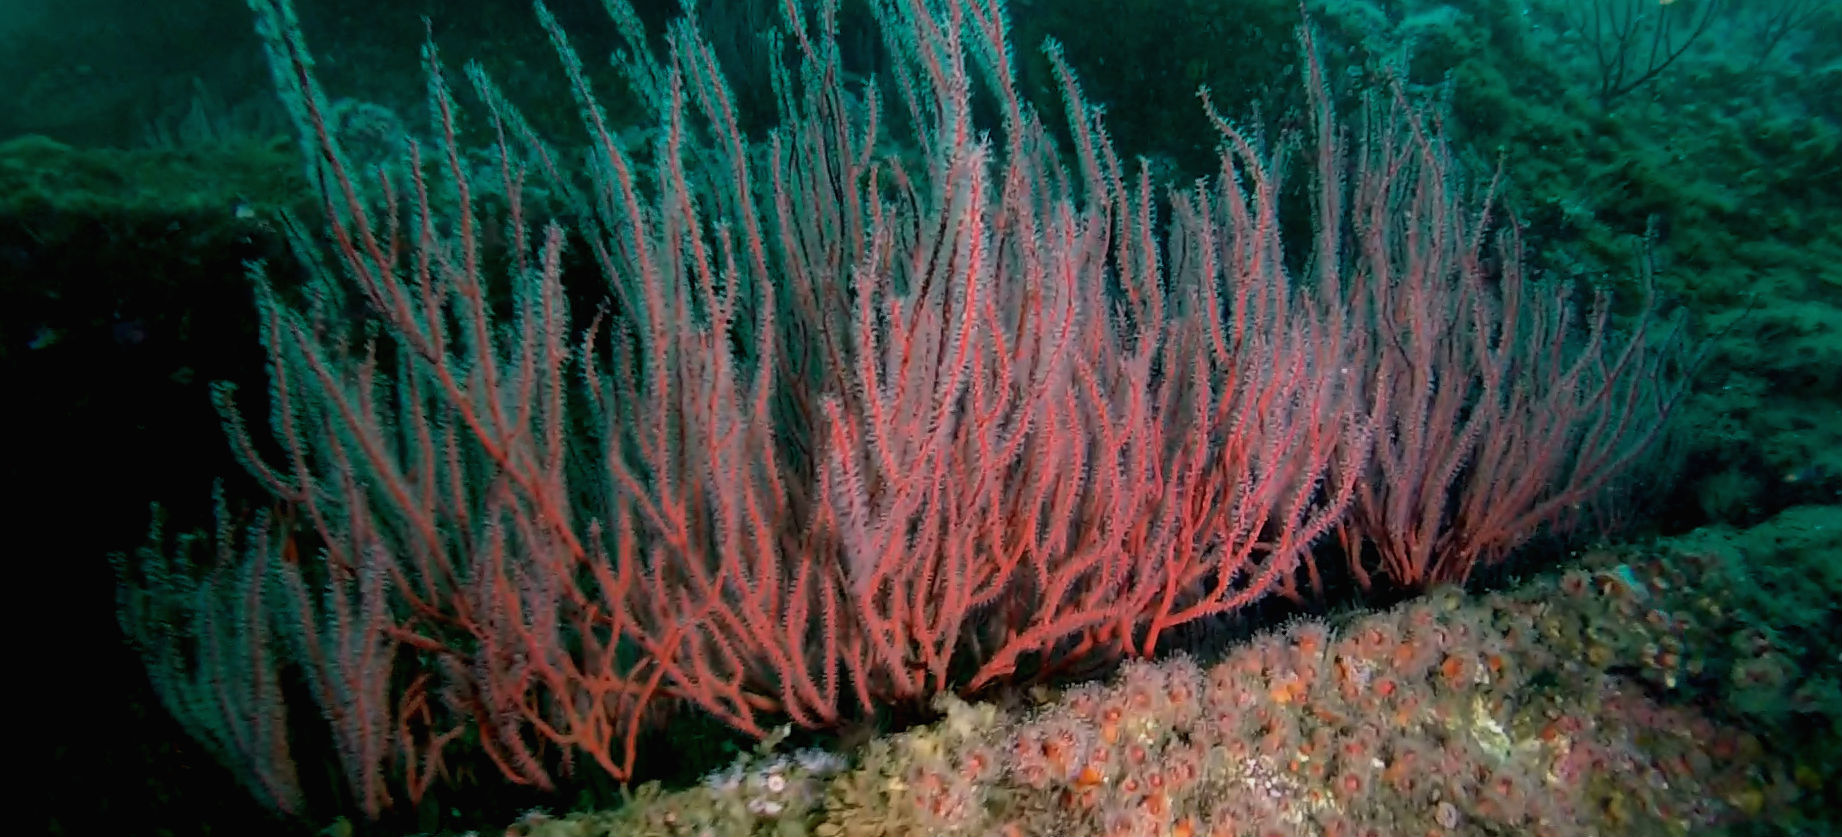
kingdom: Animalia
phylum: Cnidaria
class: Anthozoa
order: Malacalcyonacea
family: Gorgoniidae
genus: Leptogorgia
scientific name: Leptogorgia chilensis
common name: Carmine sea spray
